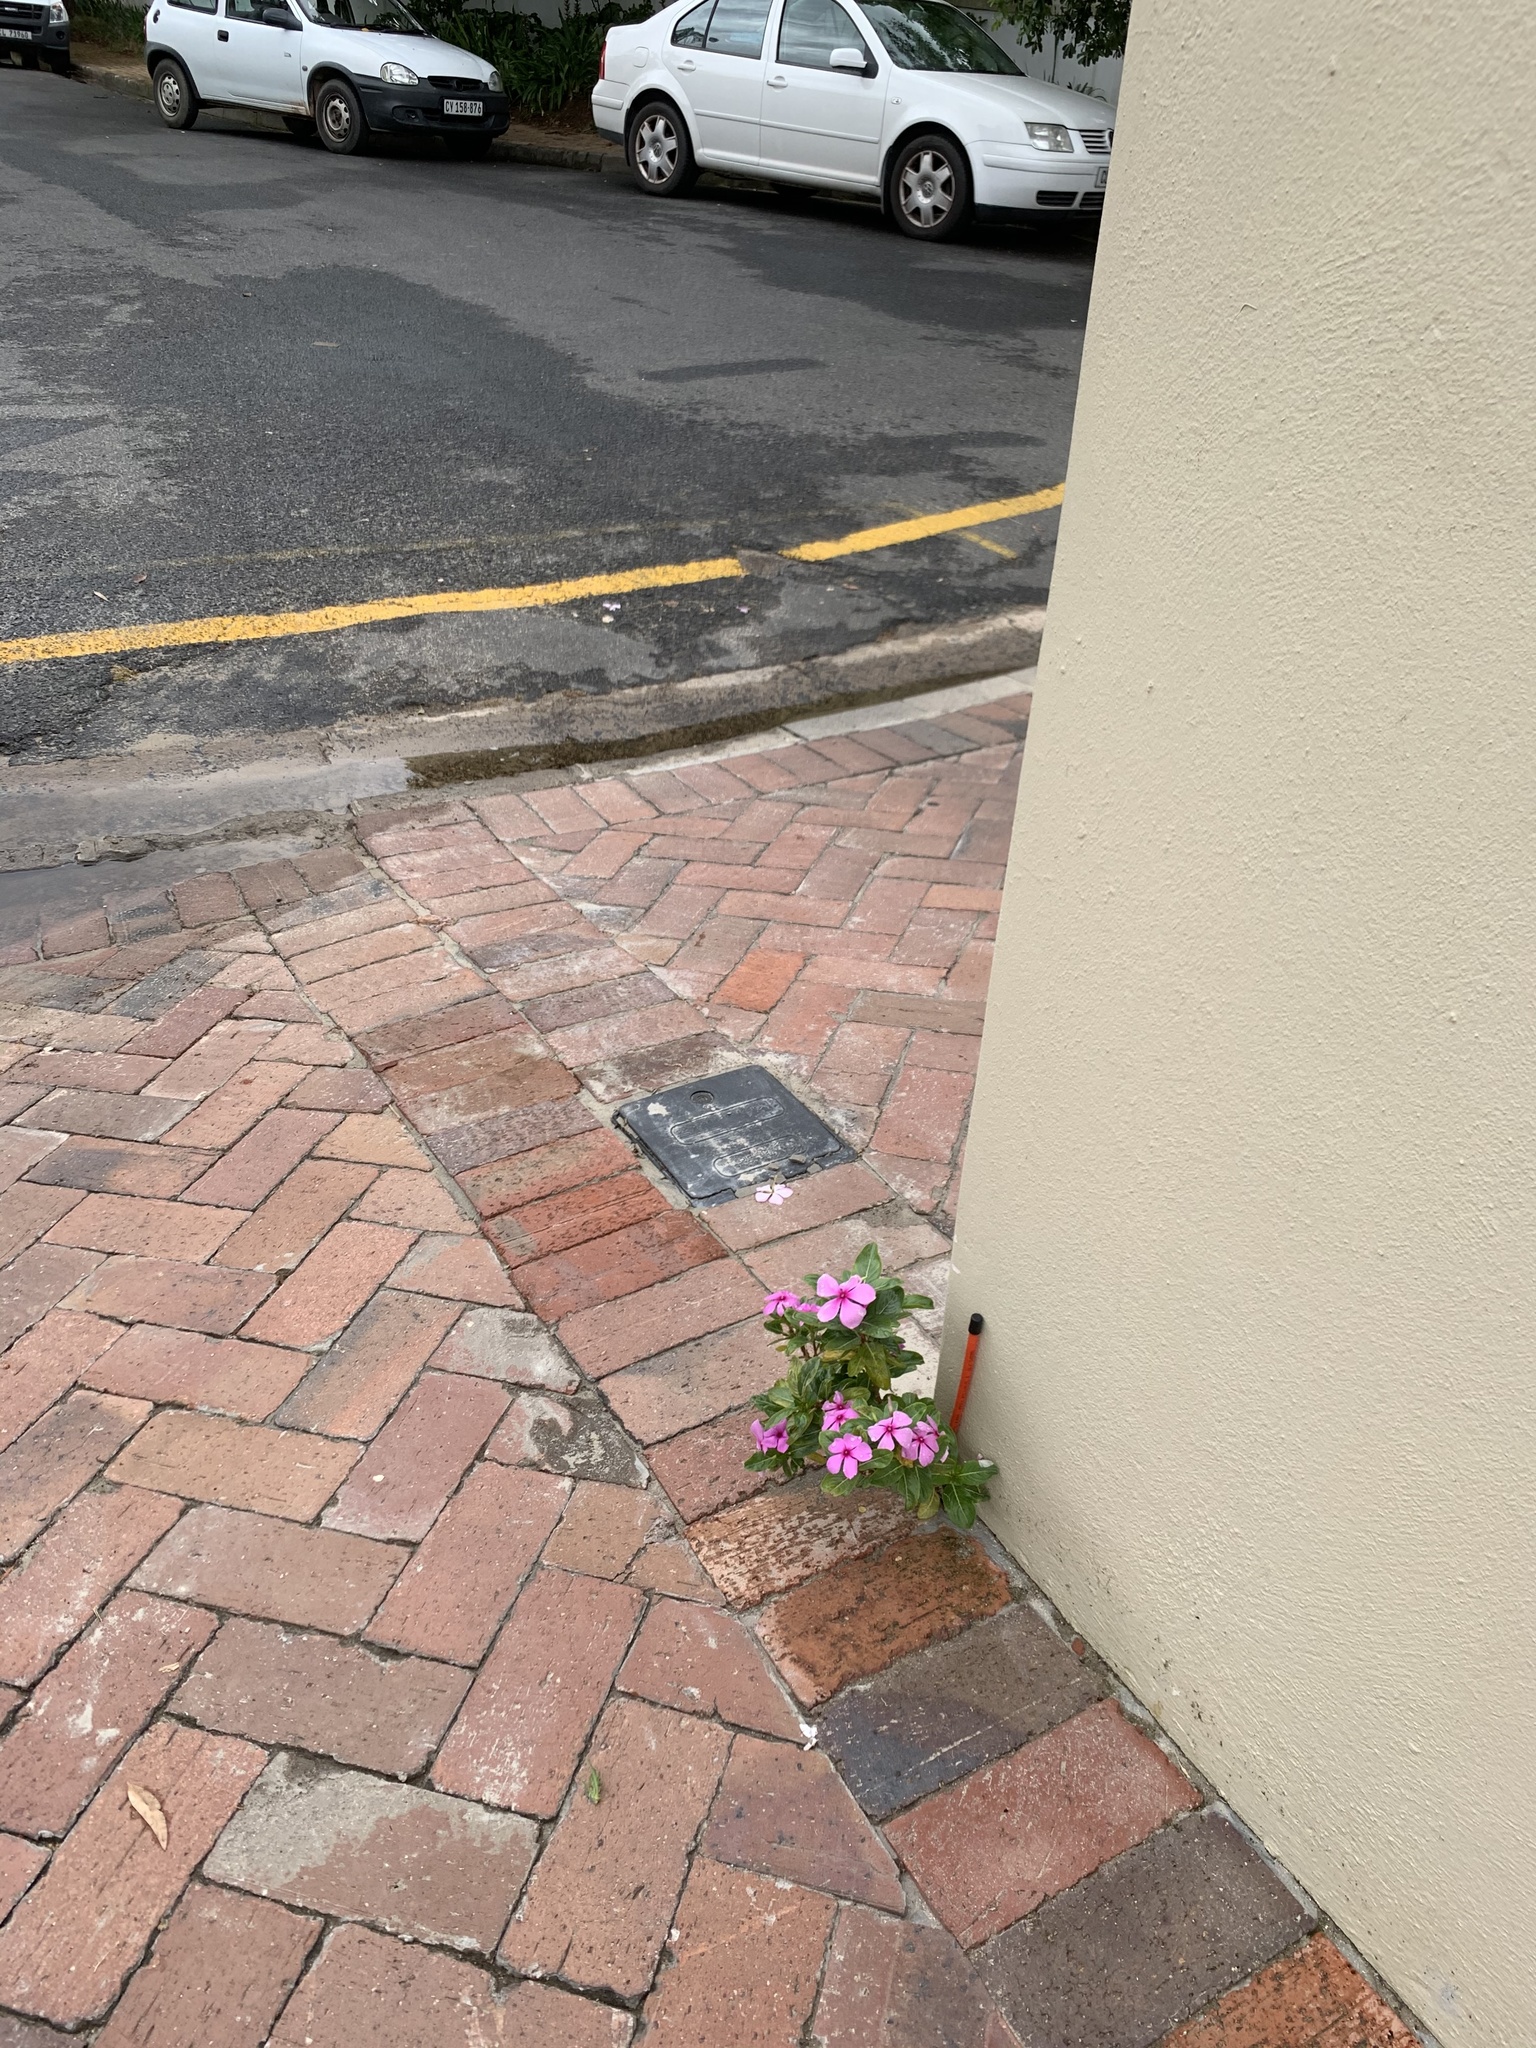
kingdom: Plantae
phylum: Tracheophyta
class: Magnoliopsida
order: Gentianales
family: Apocynaceae
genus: Catharanthus
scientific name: Catharanthus roseus
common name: Madagascar periwinkle
